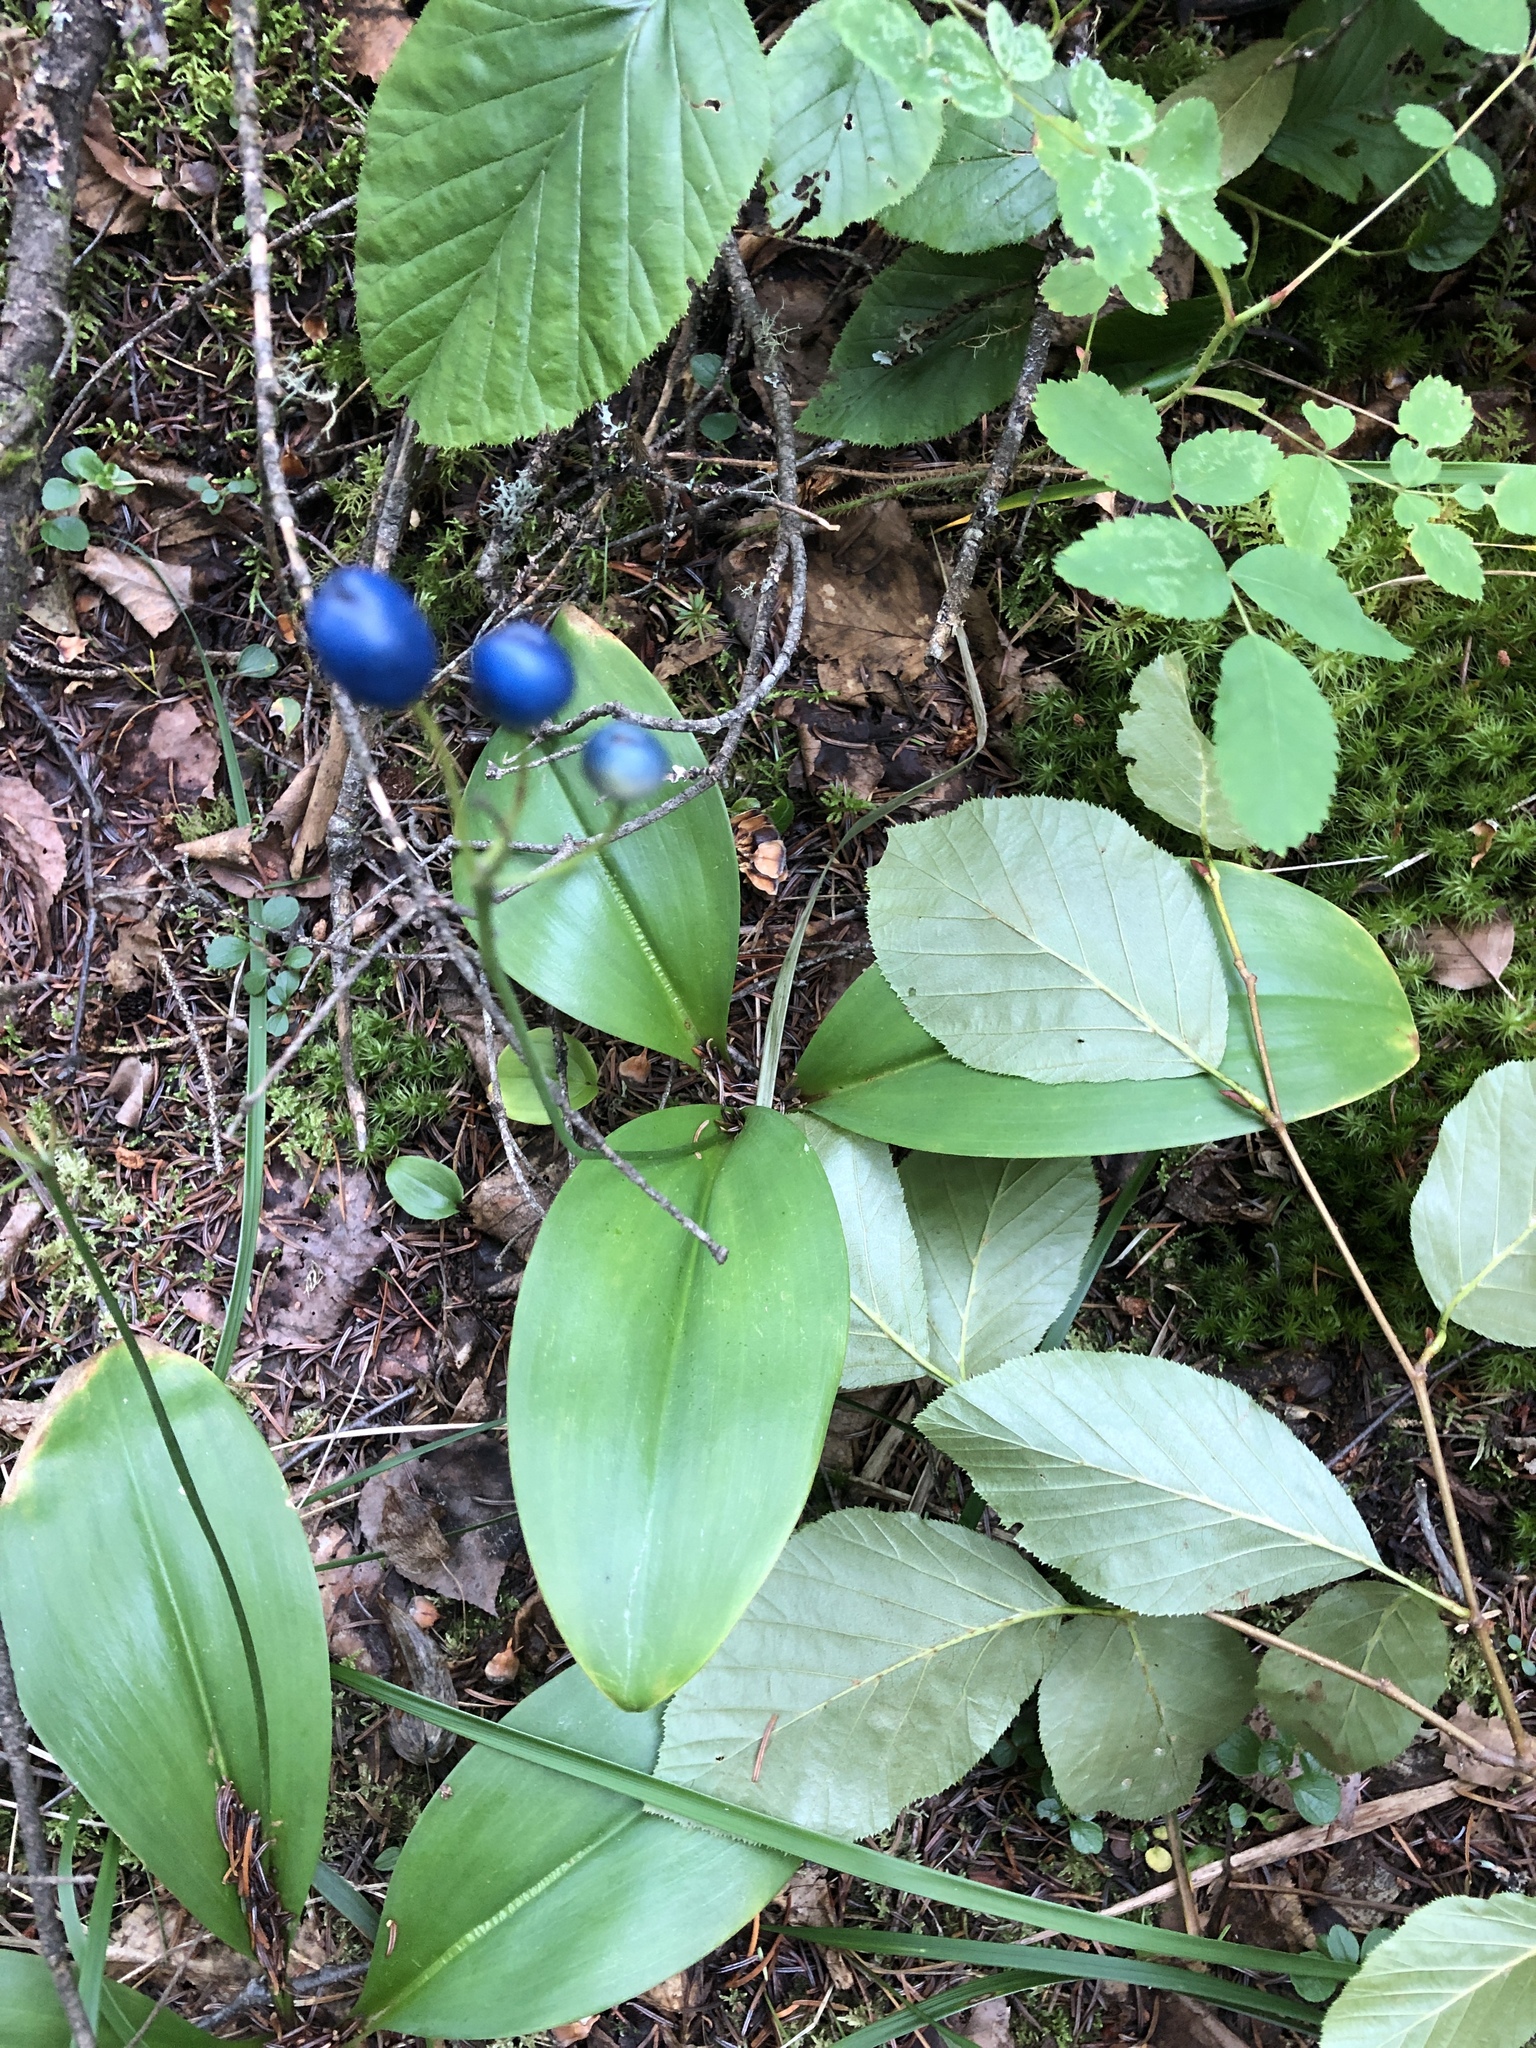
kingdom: Plantae
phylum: Tracheophyta
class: Liliopsida
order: Liliales
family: Liliaceae
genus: Clintonia
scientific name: Clintonia borealis
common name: Yellow clintonia
